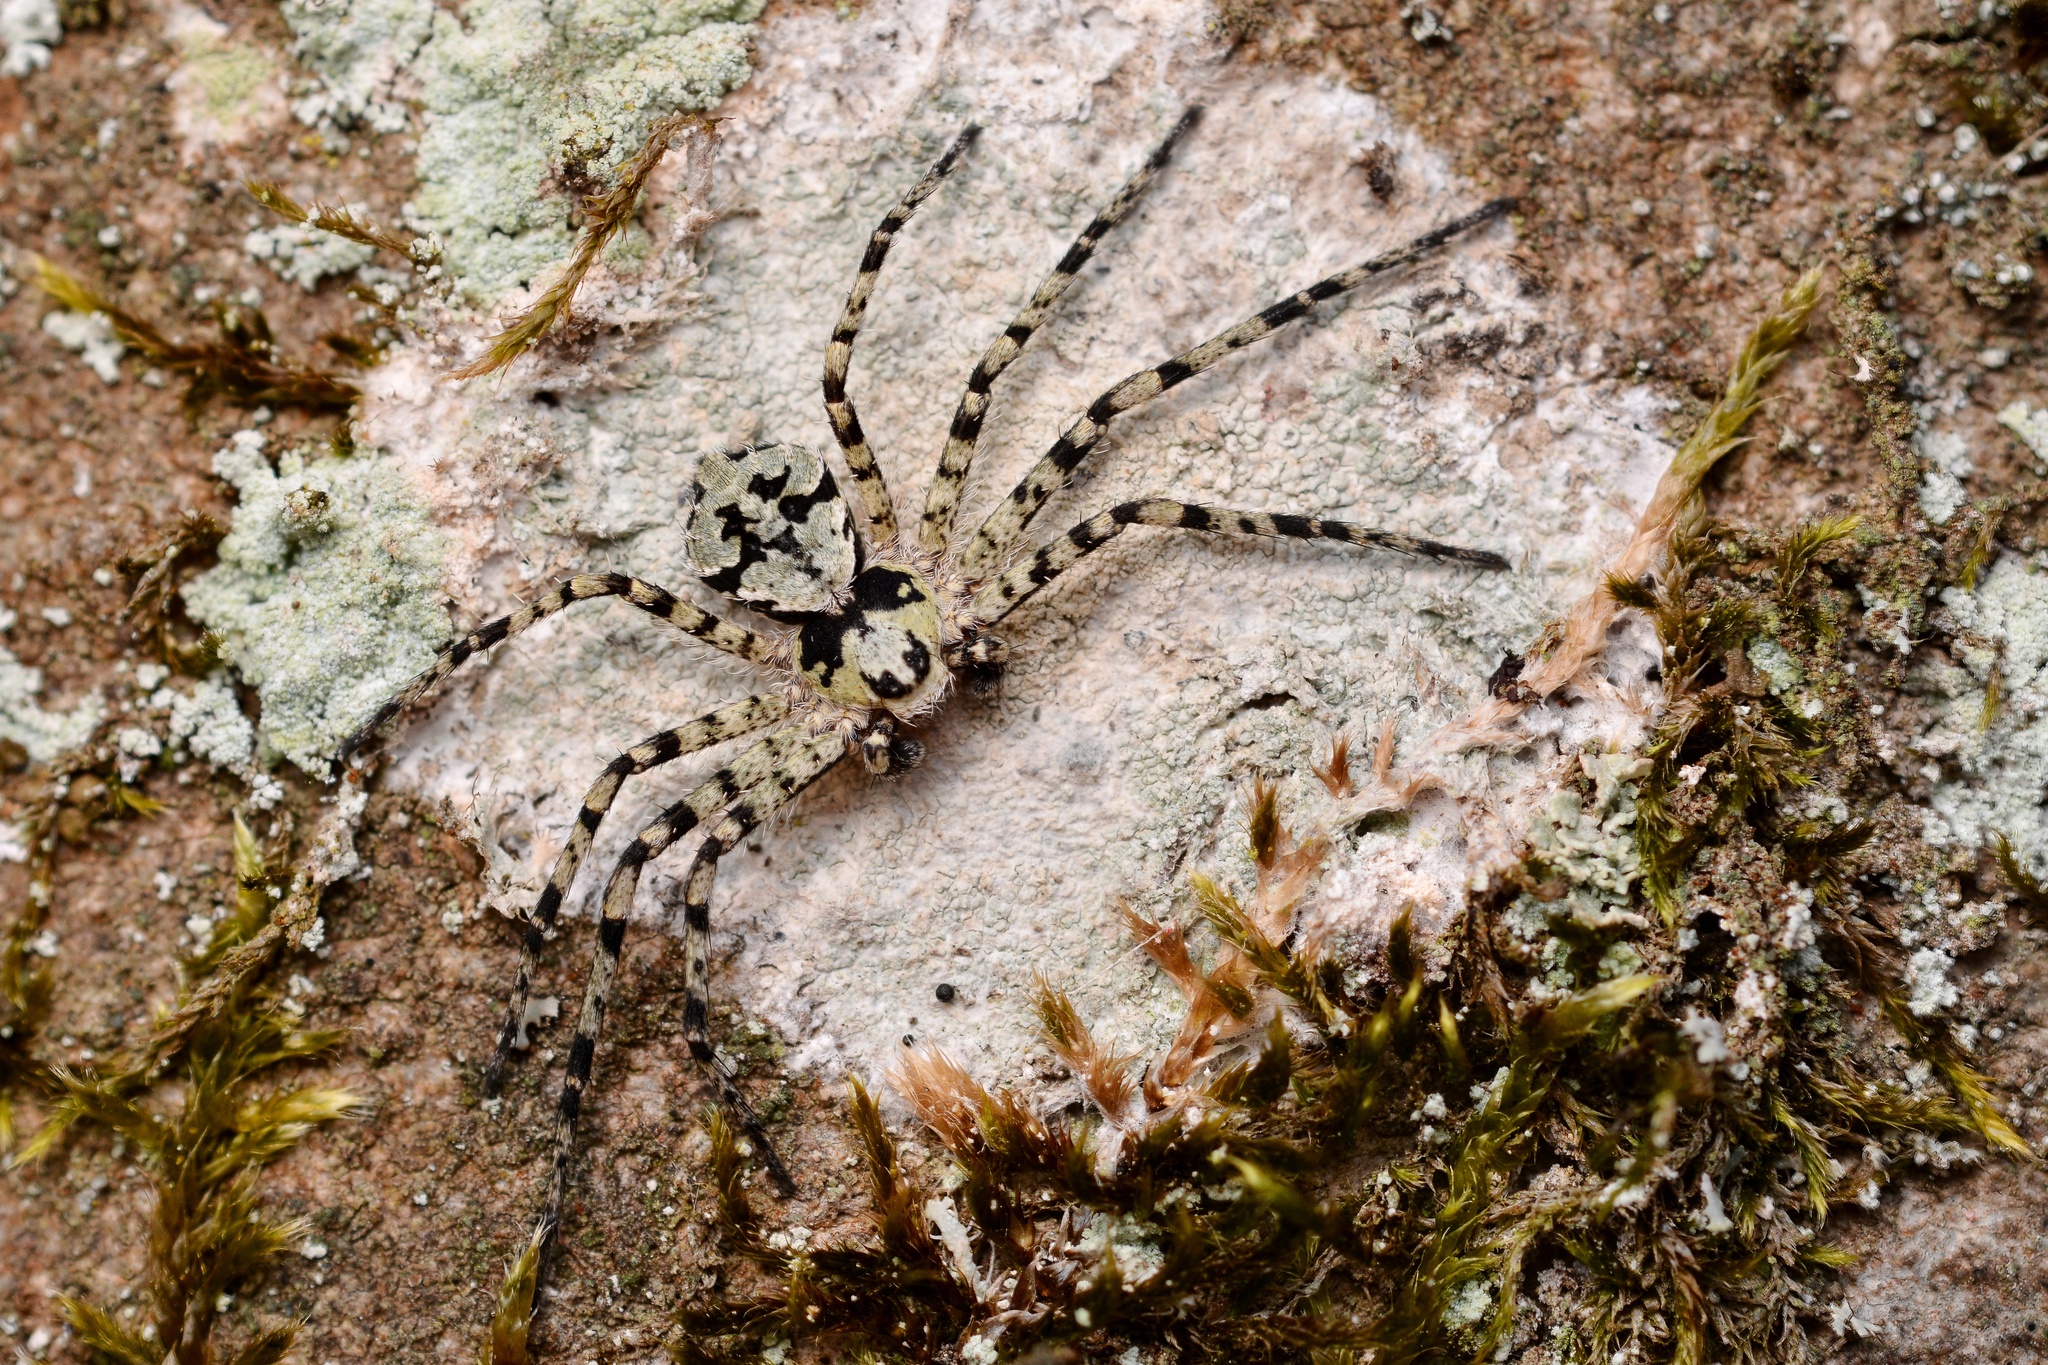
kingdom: Animalia
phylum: Arthropoda
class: Arachnida
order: Araneae
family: Philodromidae
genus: Philodromus
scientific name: Philodromus margaritatus
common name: Lichen running-spider
